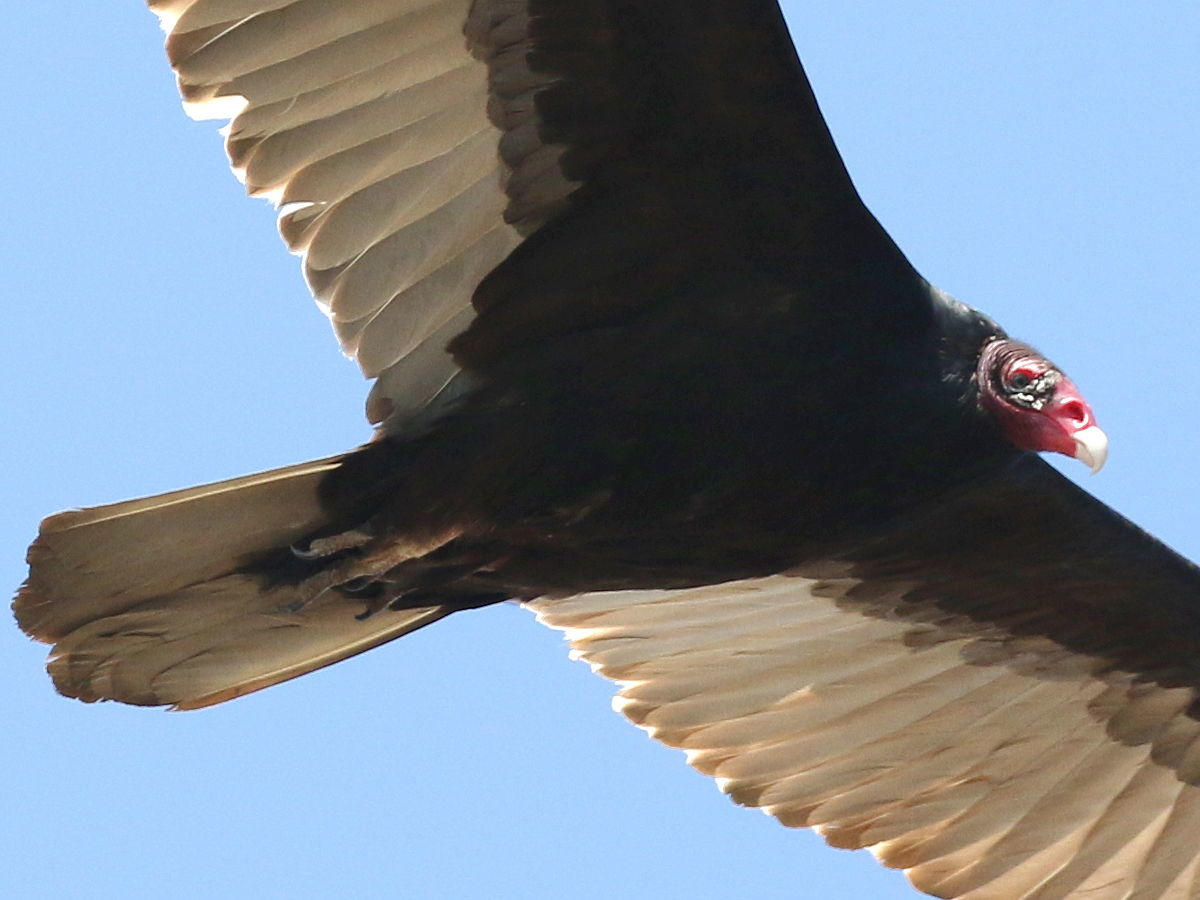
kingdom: Animalia
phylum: Chordata
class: Aves
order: Accipitriformes
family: Cathartidae
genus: Cathartes
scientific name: Cathartes aura
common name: Turkey vulture
